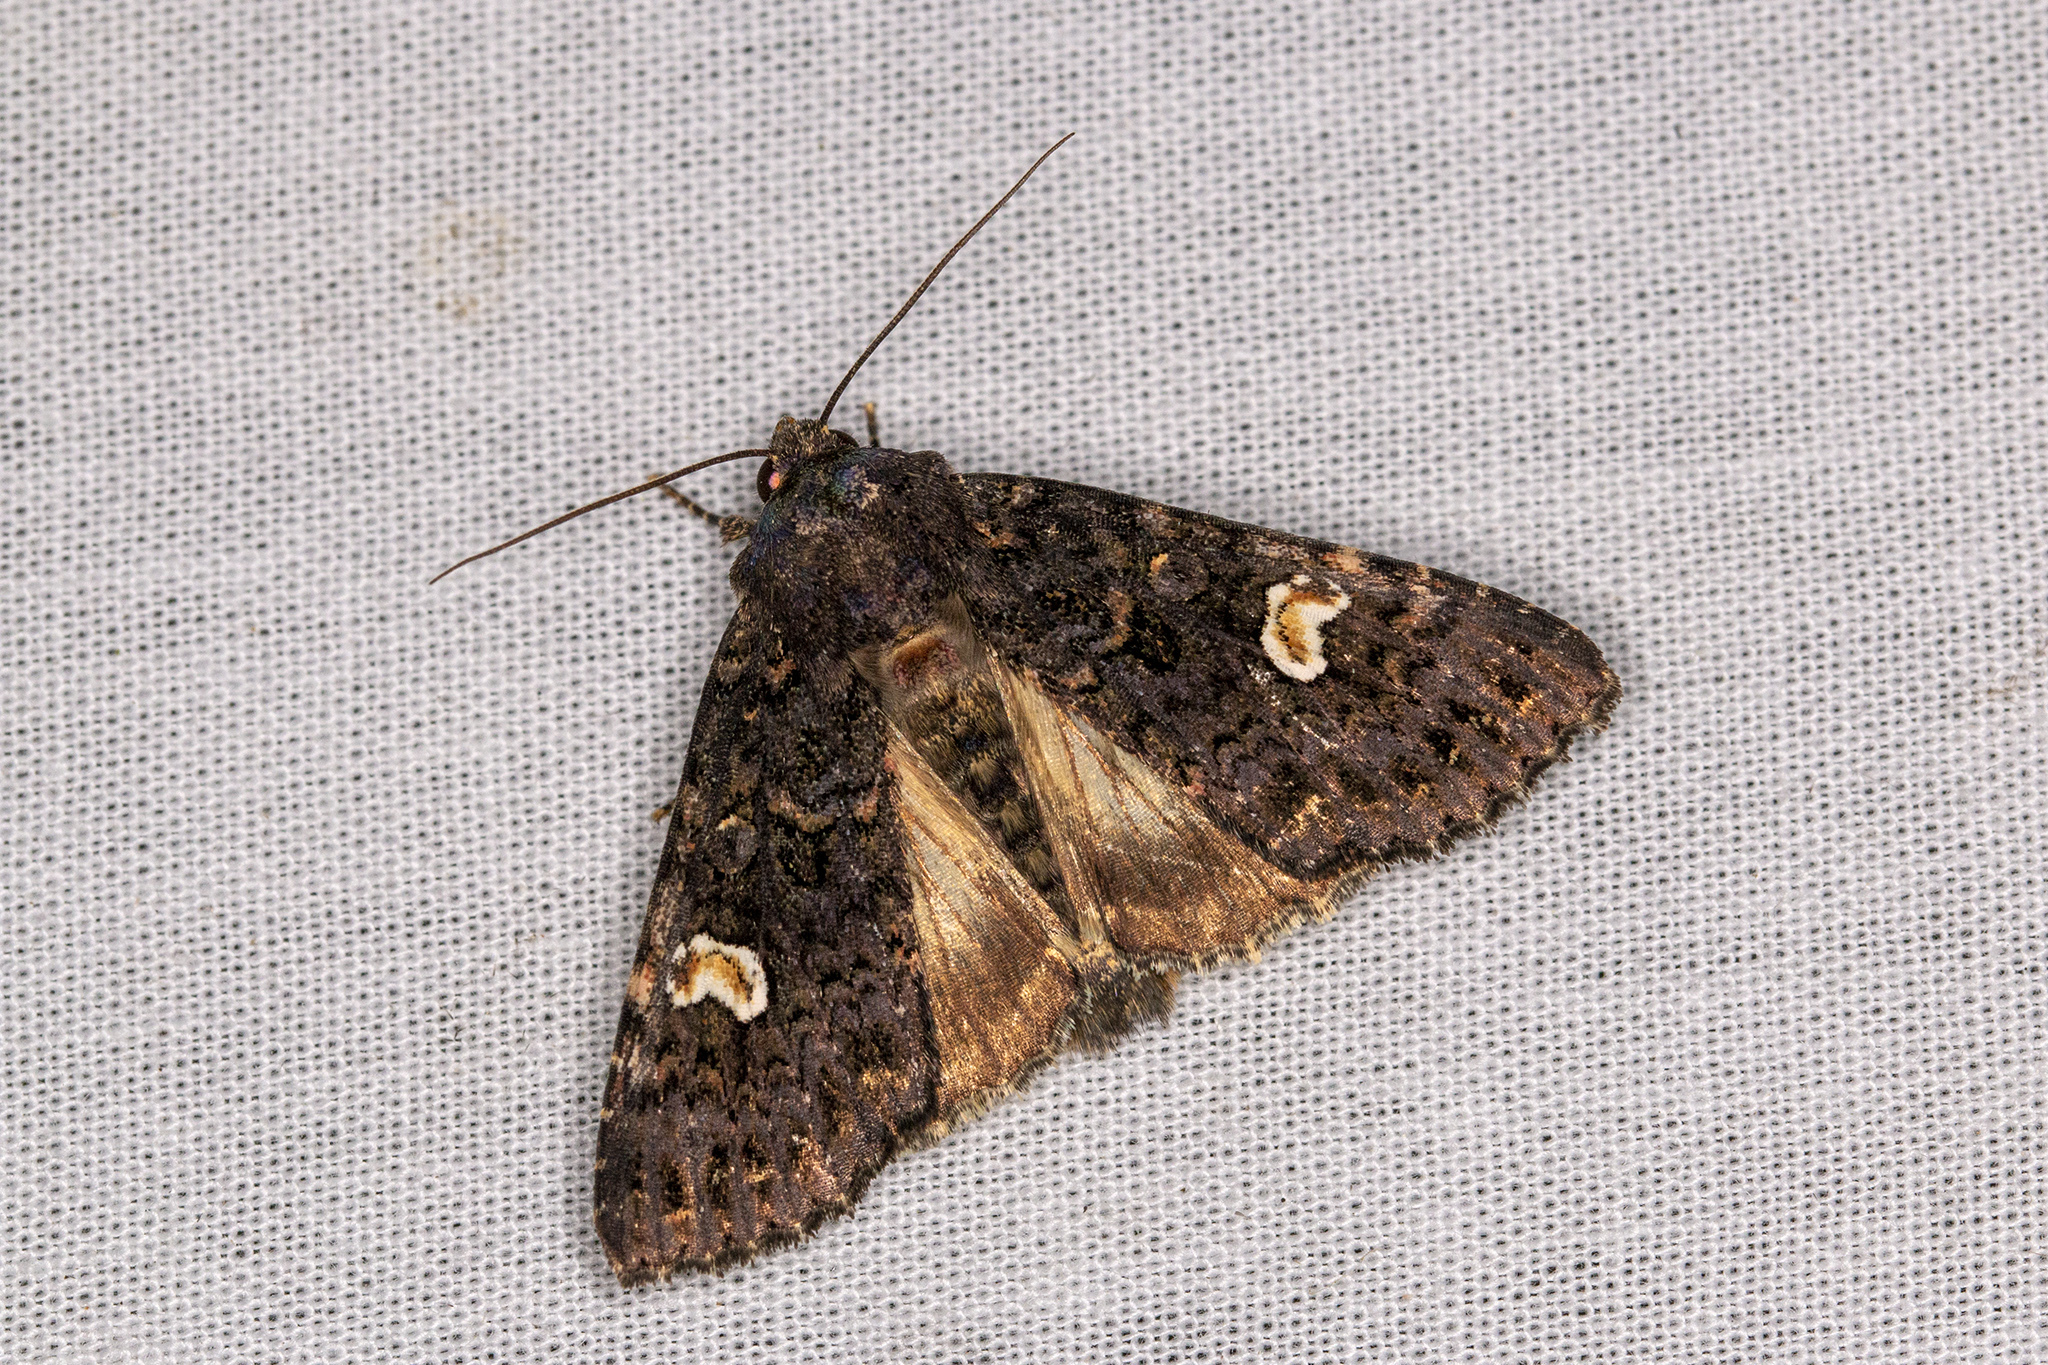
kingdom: Animalia
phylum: Arthropoda
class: Insecta
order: Lepidoptera
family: Noctuidae
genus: Melanchra
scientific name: Melanchra persicariae
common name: Dot moth
